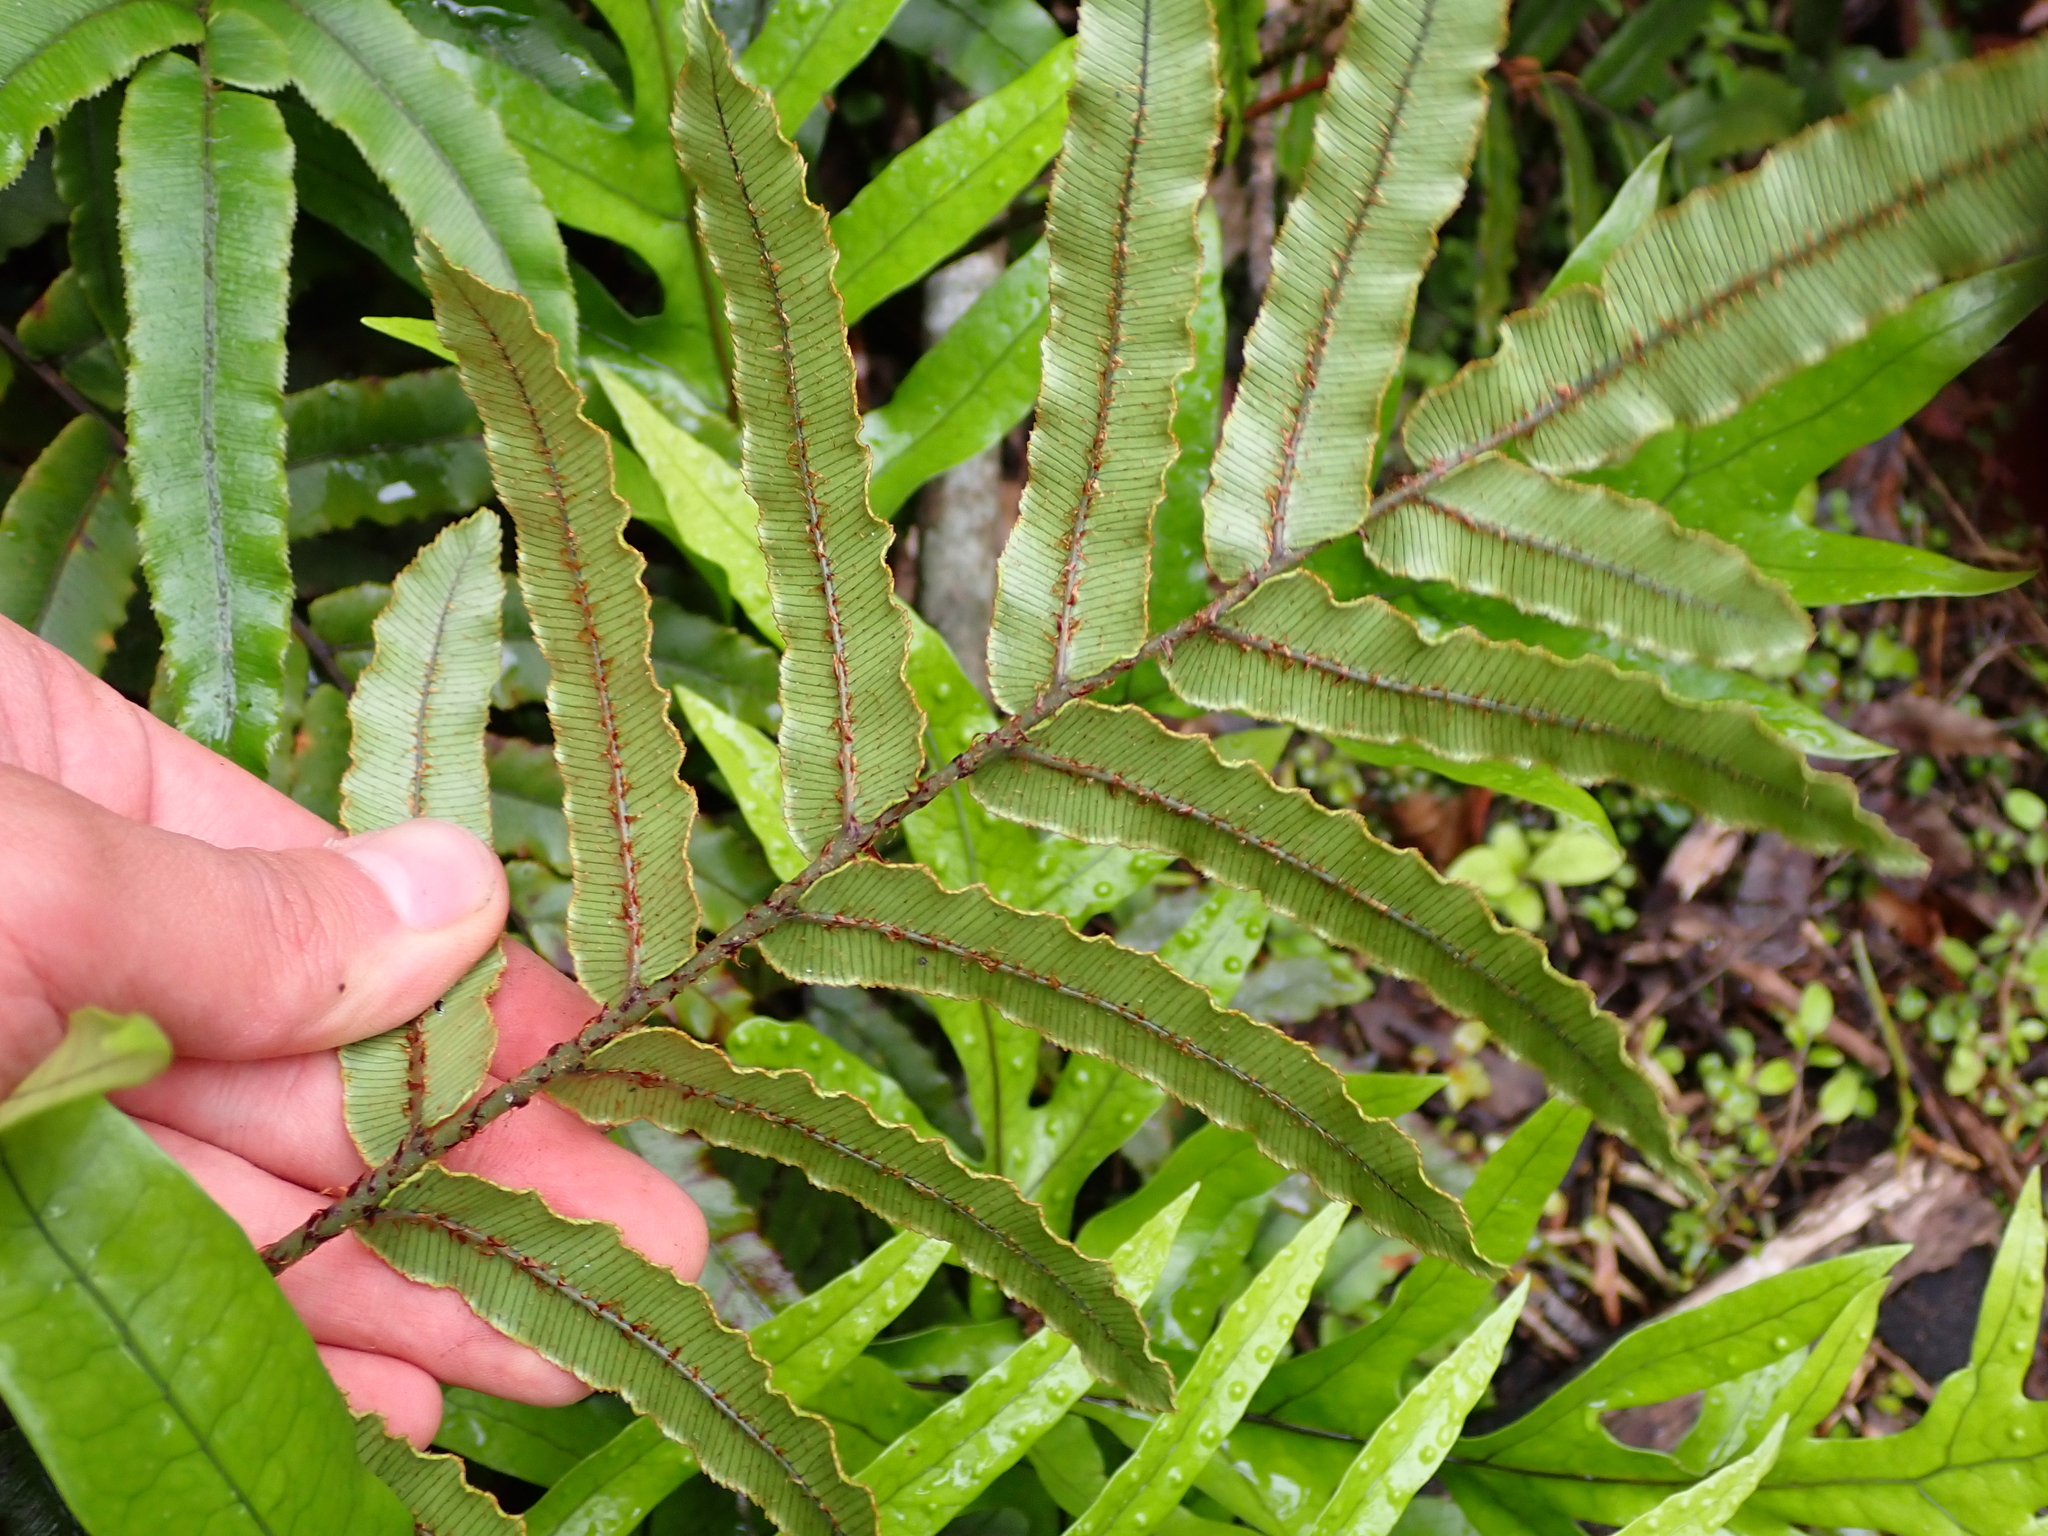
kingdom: Plantae
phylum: Tracheophyta
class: Polypodiopsida
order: Polypodiales
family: Blechnaceae
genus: Parablechnum
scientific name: Parablechnum procerum
